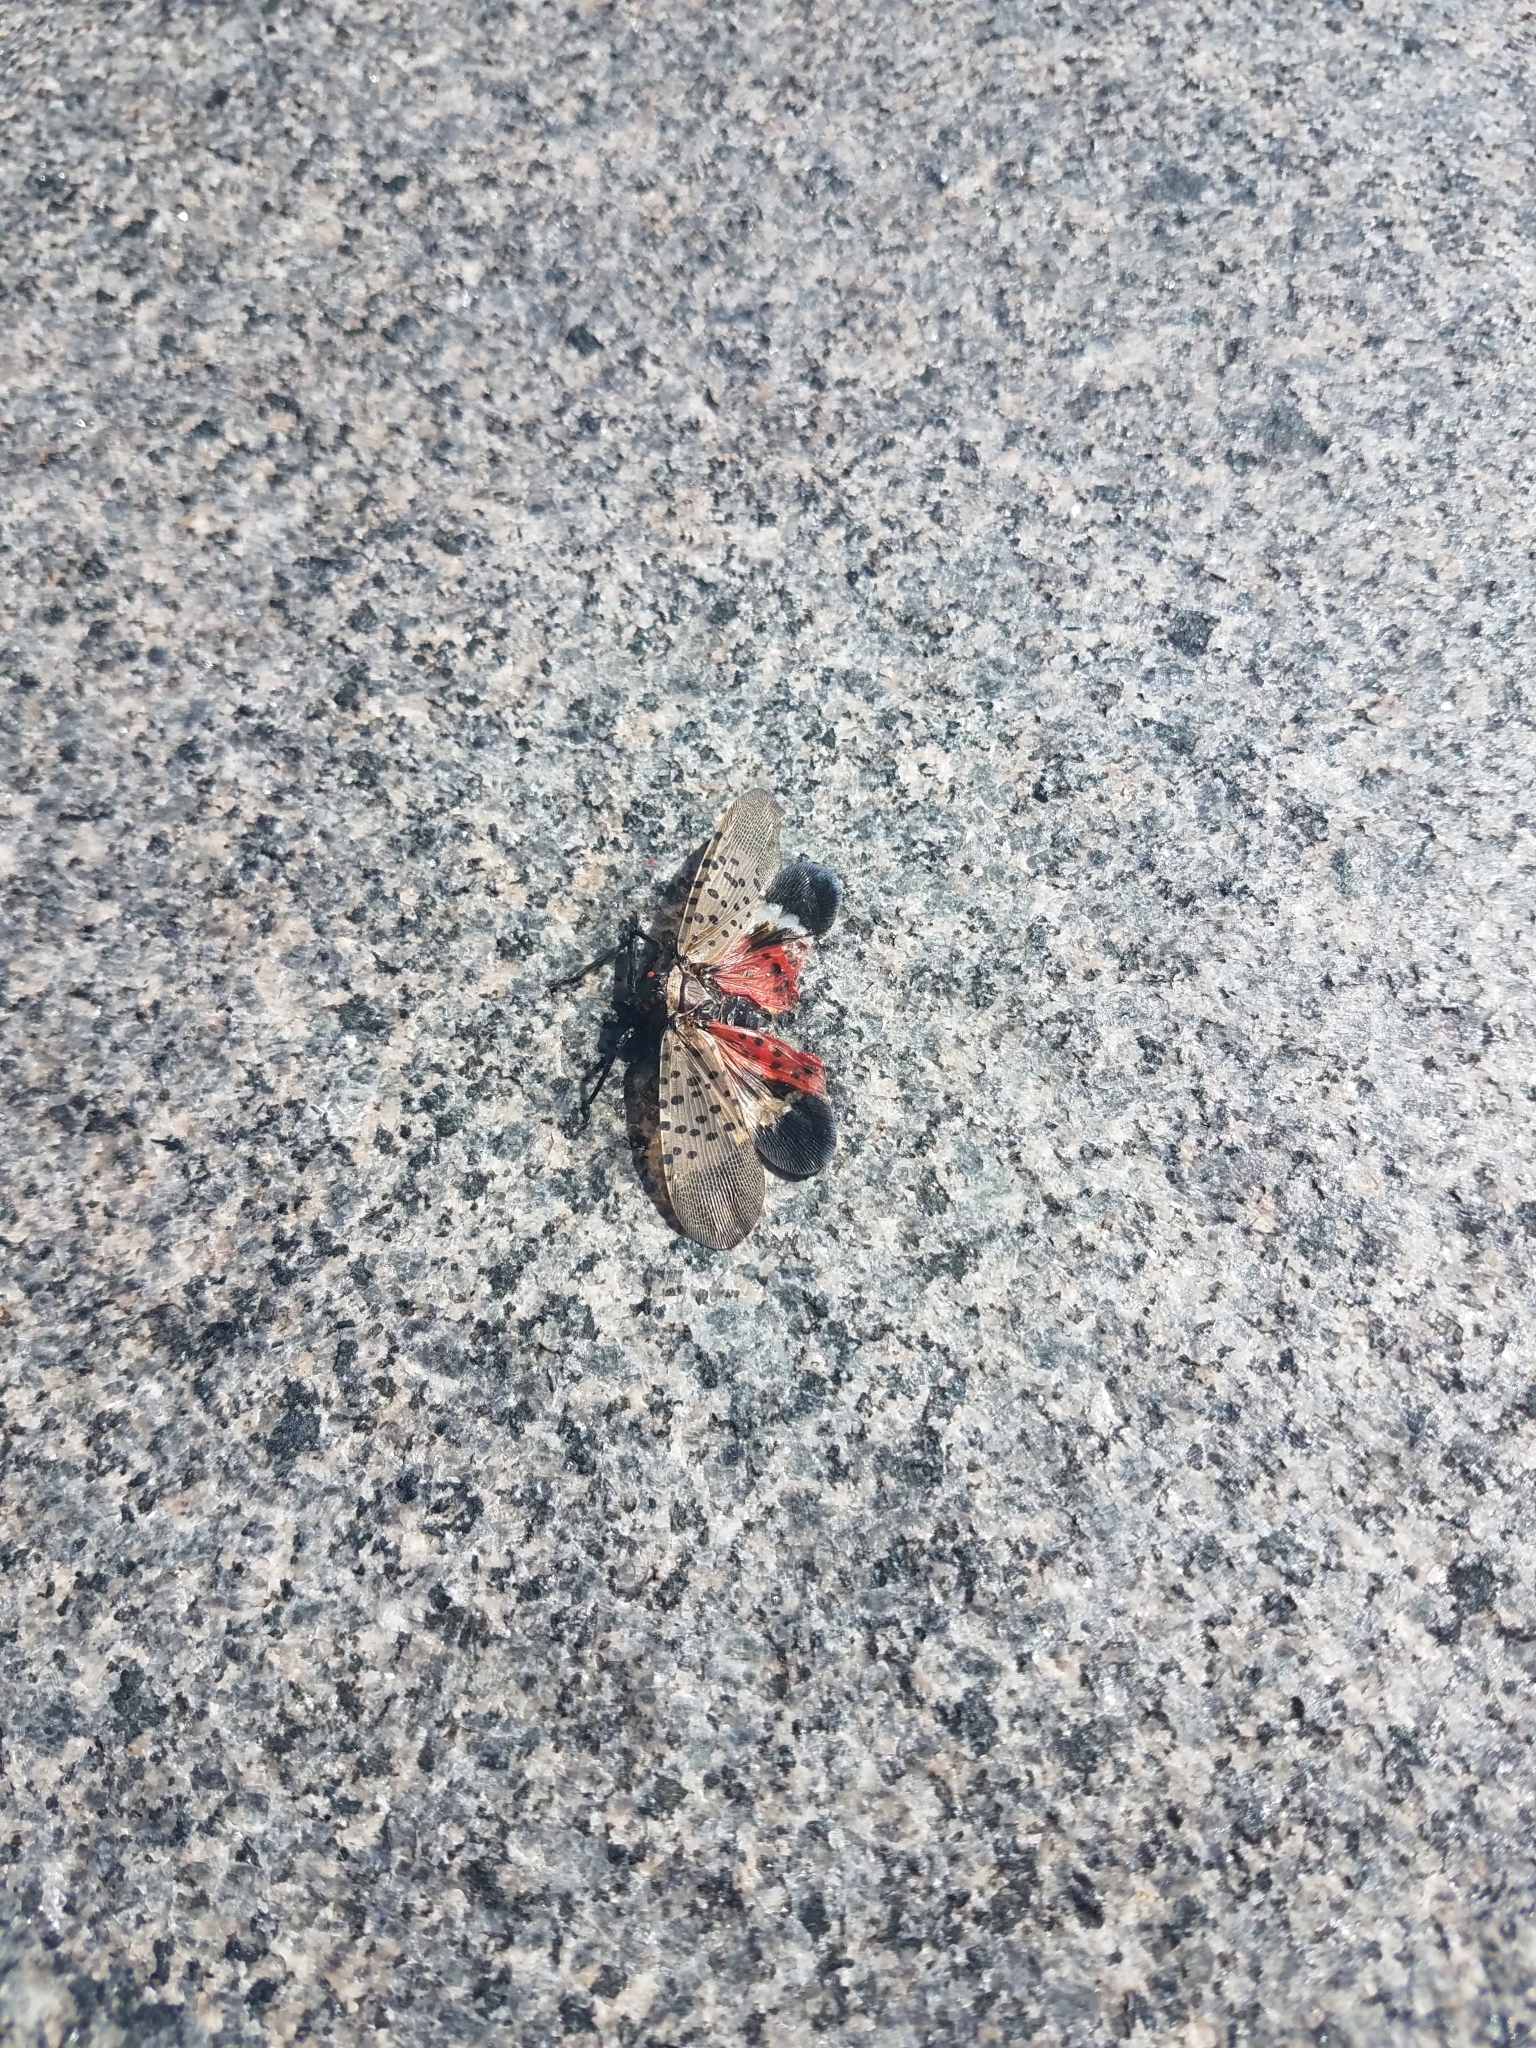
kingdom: Animalia
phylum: Arthropoda
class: Insecta
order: Hemiptera
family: Fulgoridae
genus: Lycorma
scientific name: Lycorma delicatula
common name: Spotted lanternfly
